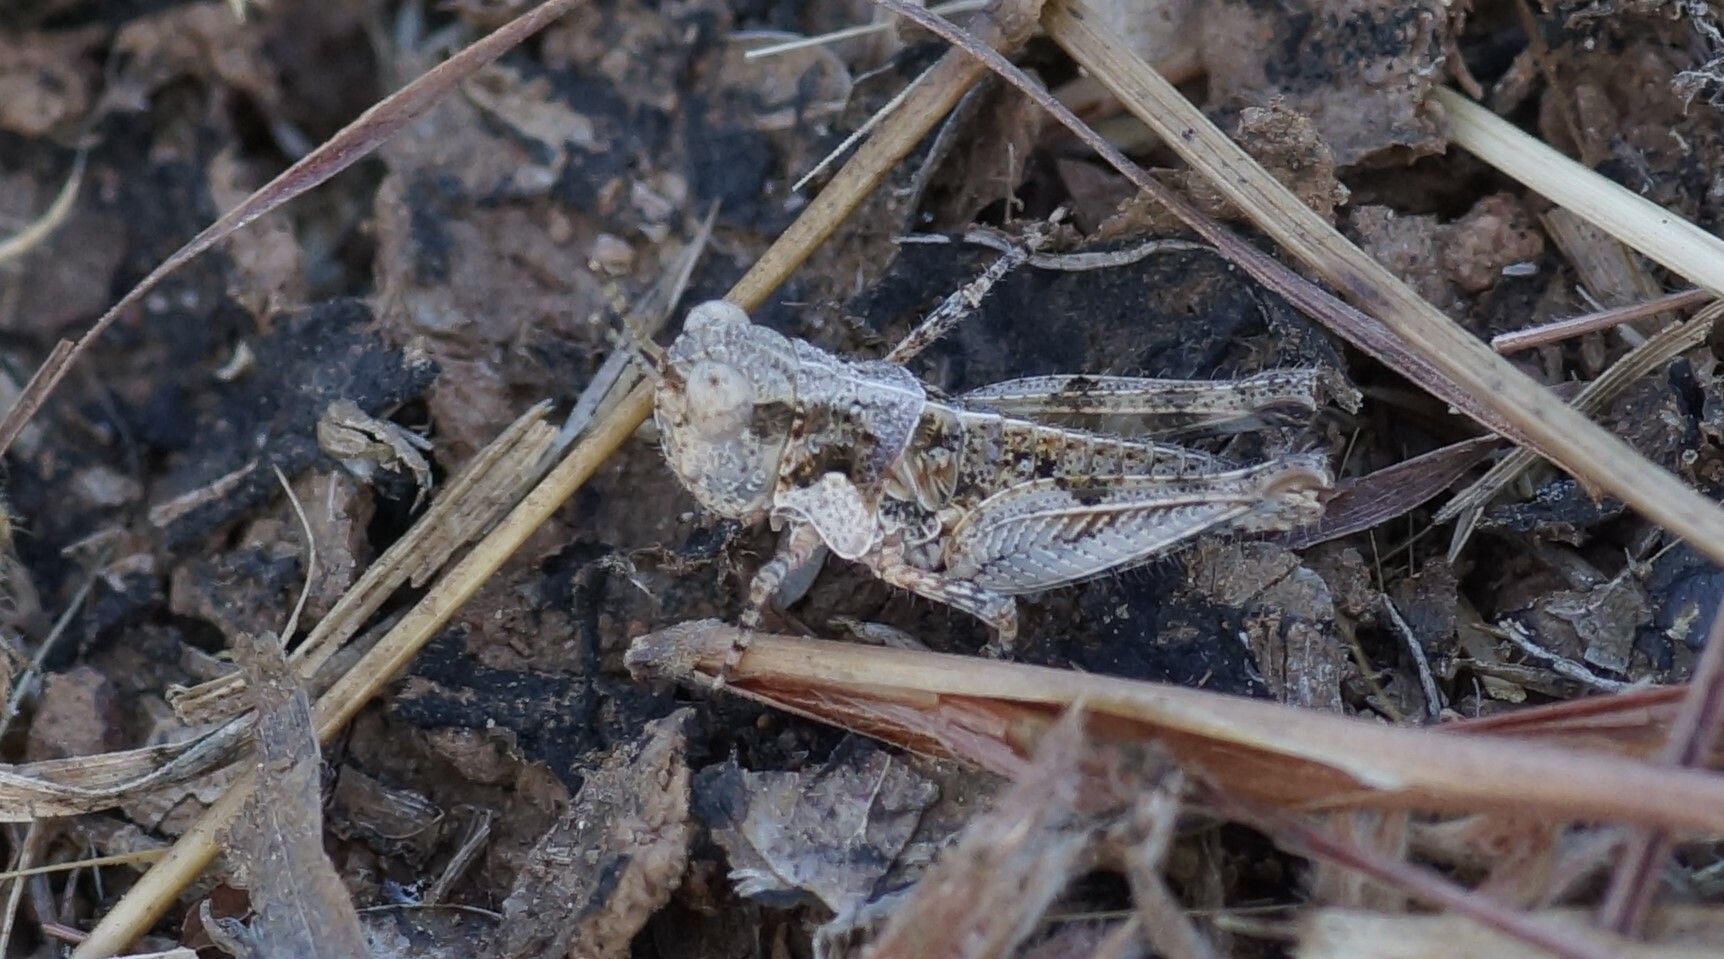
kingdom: Animalia
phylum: Arthropoda
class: Insecta
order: Orthoptera
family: Acrididae
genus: Pycnostictus
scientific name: Pycnostictus seriatus
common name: Common bandwing
